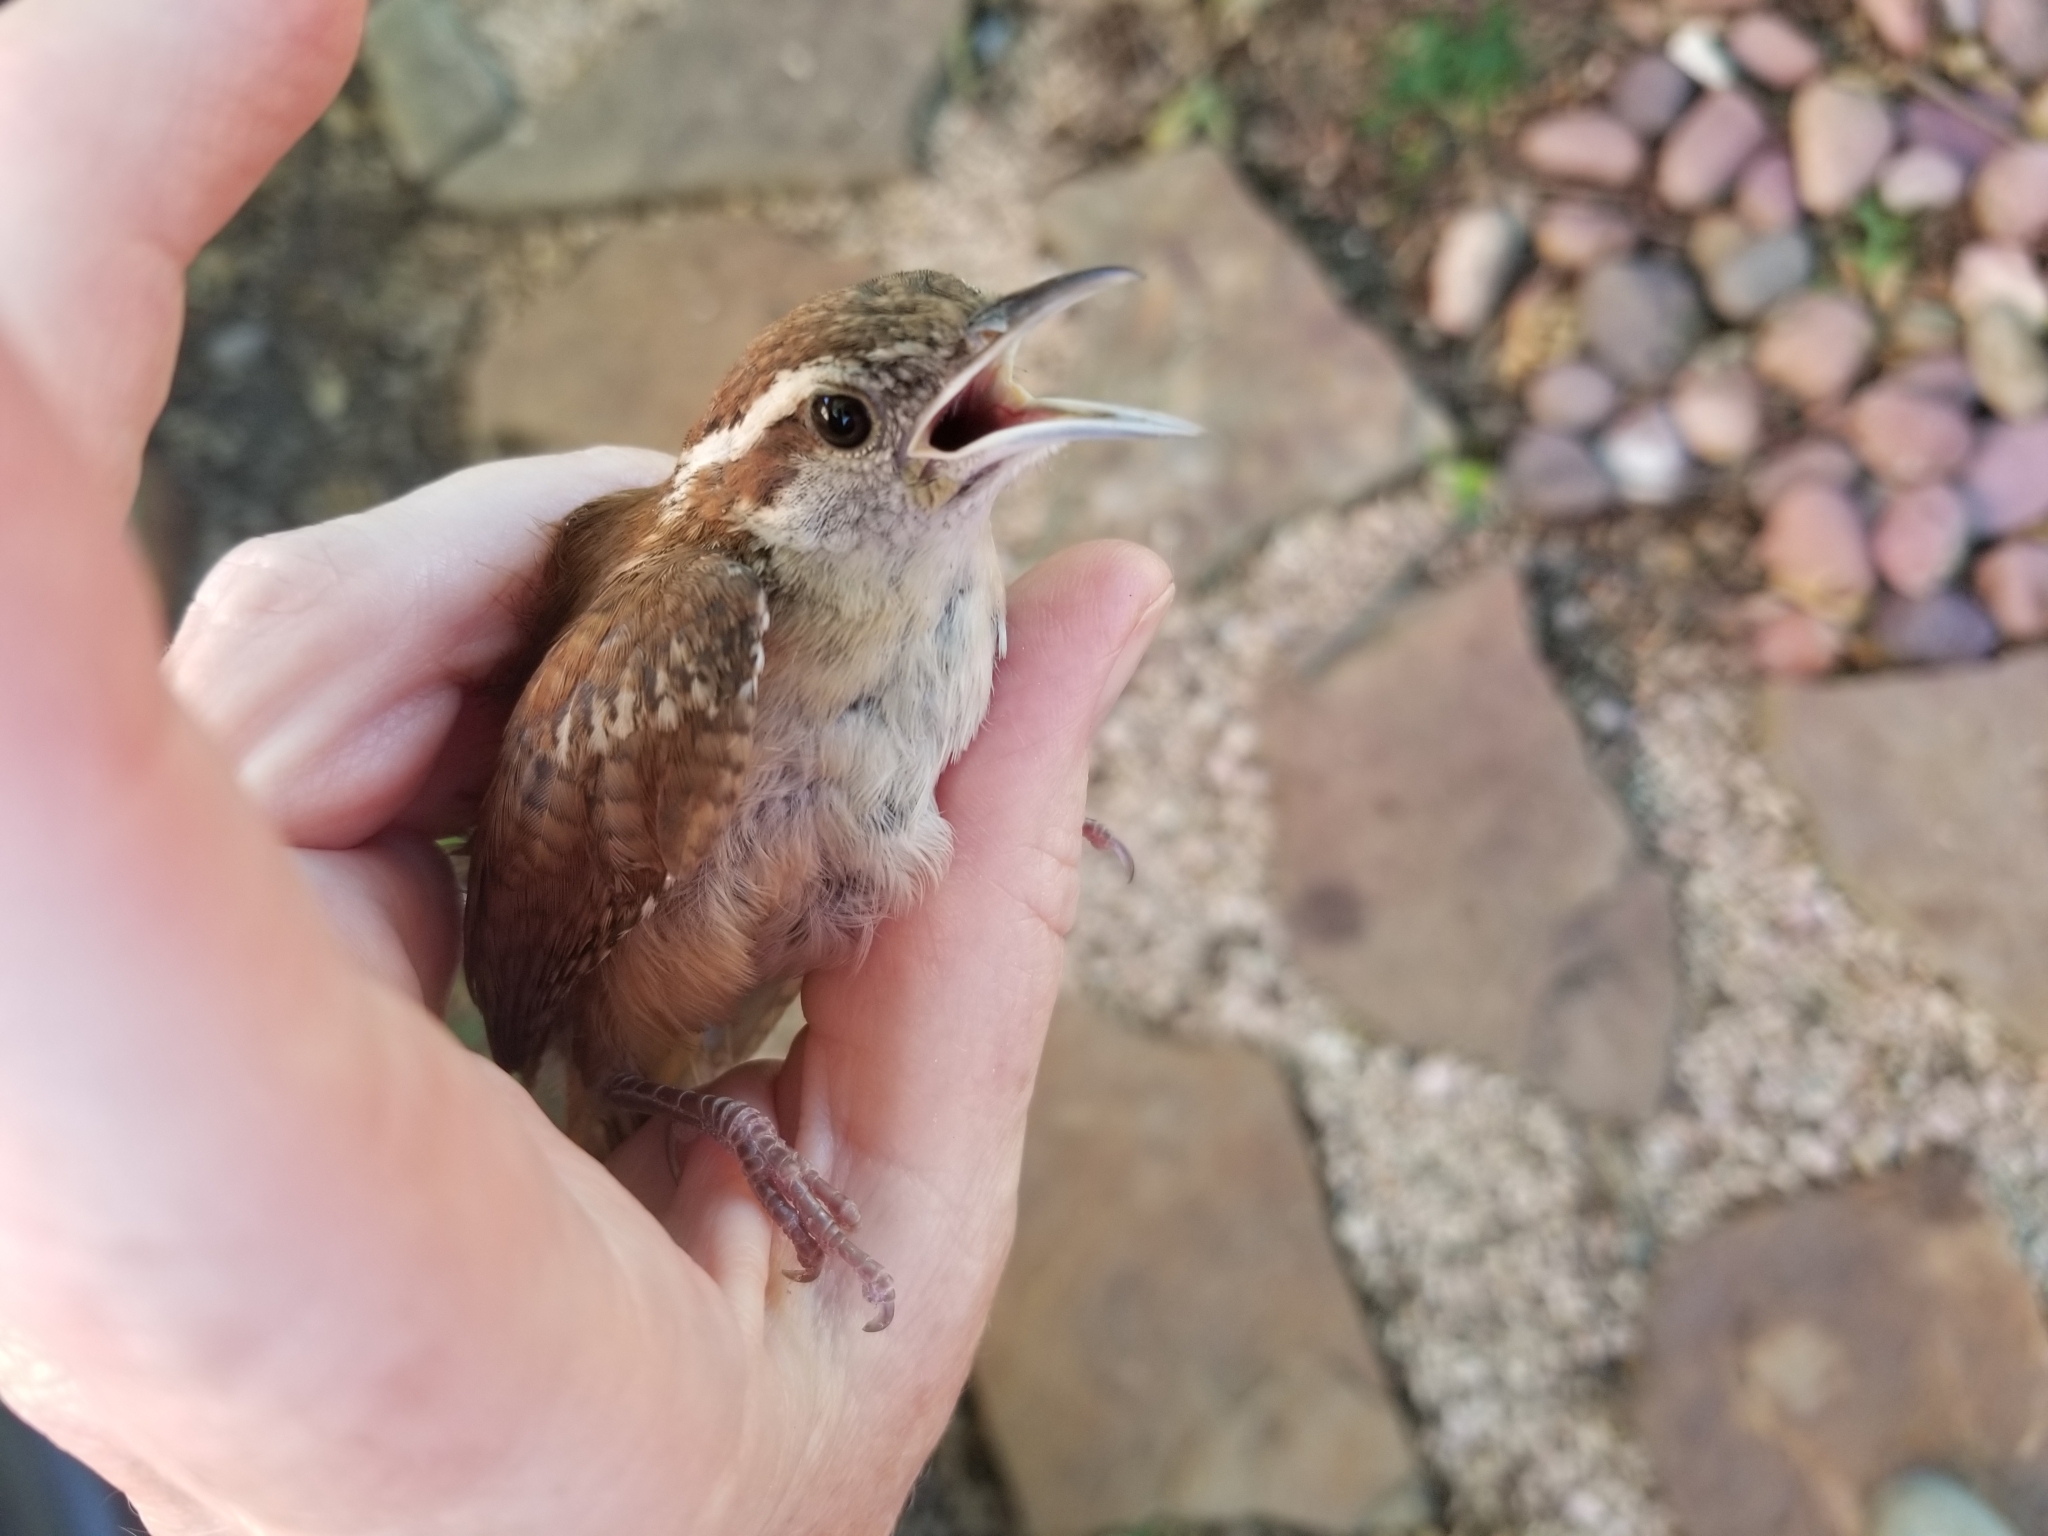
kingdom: Animalia
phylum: Chordata
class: Aves
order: Passeriformes
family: Troglodytidae
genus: Thryothorus
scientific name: Thryothorus ludovicianus
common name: Carolina wren
